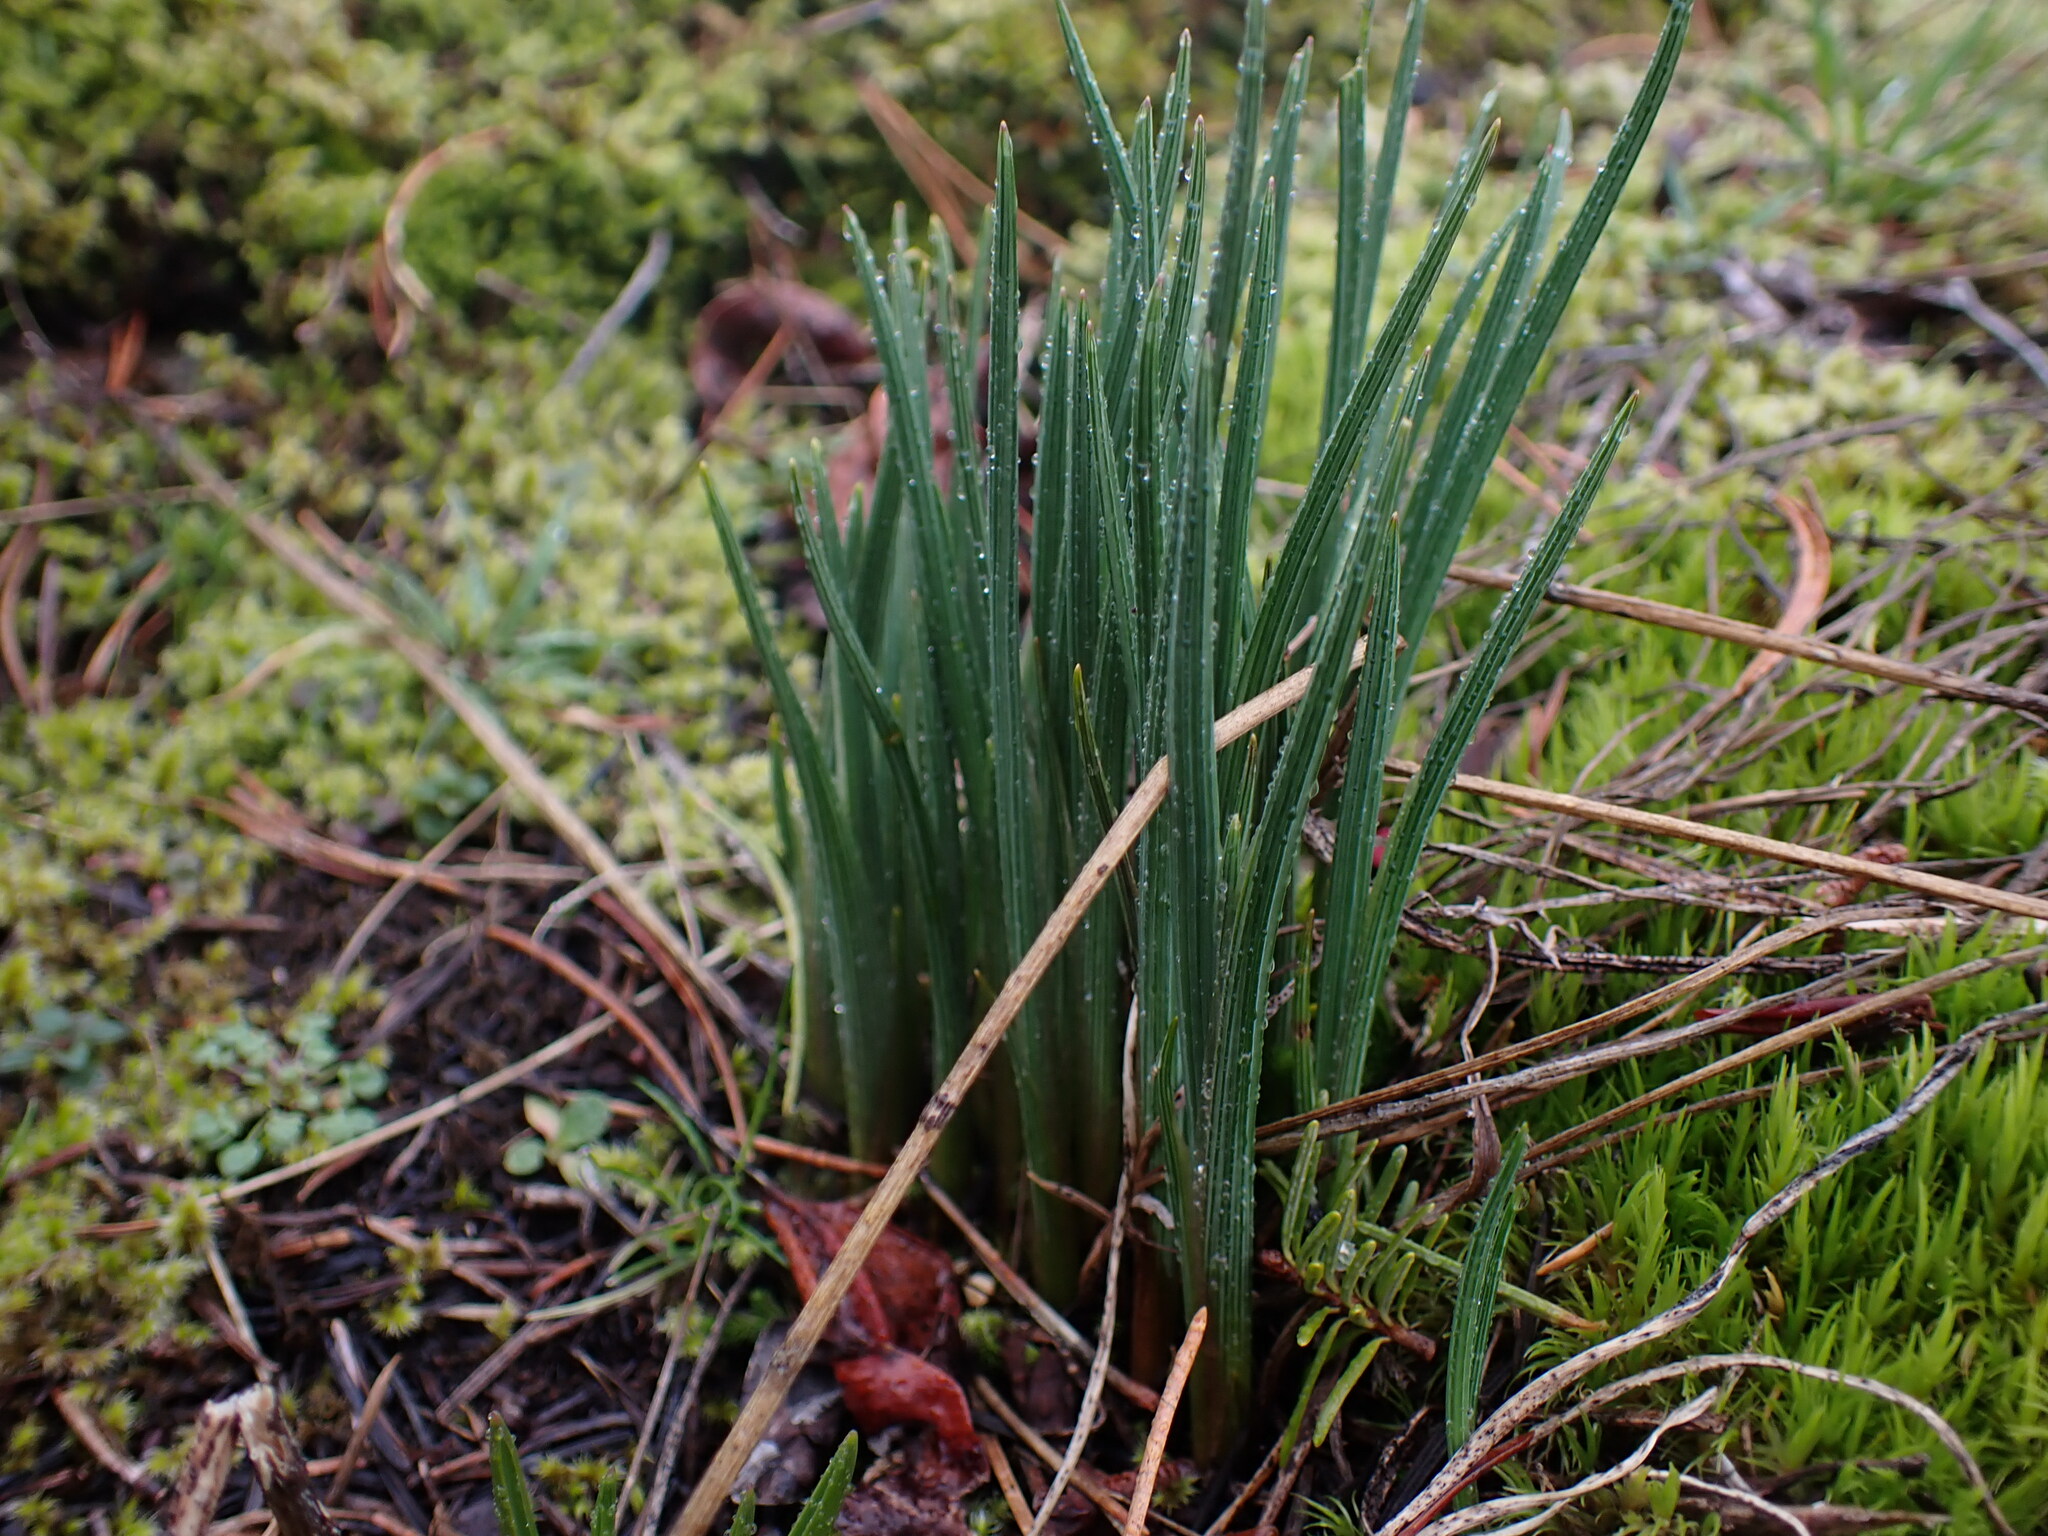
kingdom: Plantae
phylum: Tracheophyta
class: Liliopsida
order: Asparagales
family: Iridaceae
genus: Olsynium
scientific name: Olsynium douglasii
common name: Douglas' grasswidow
